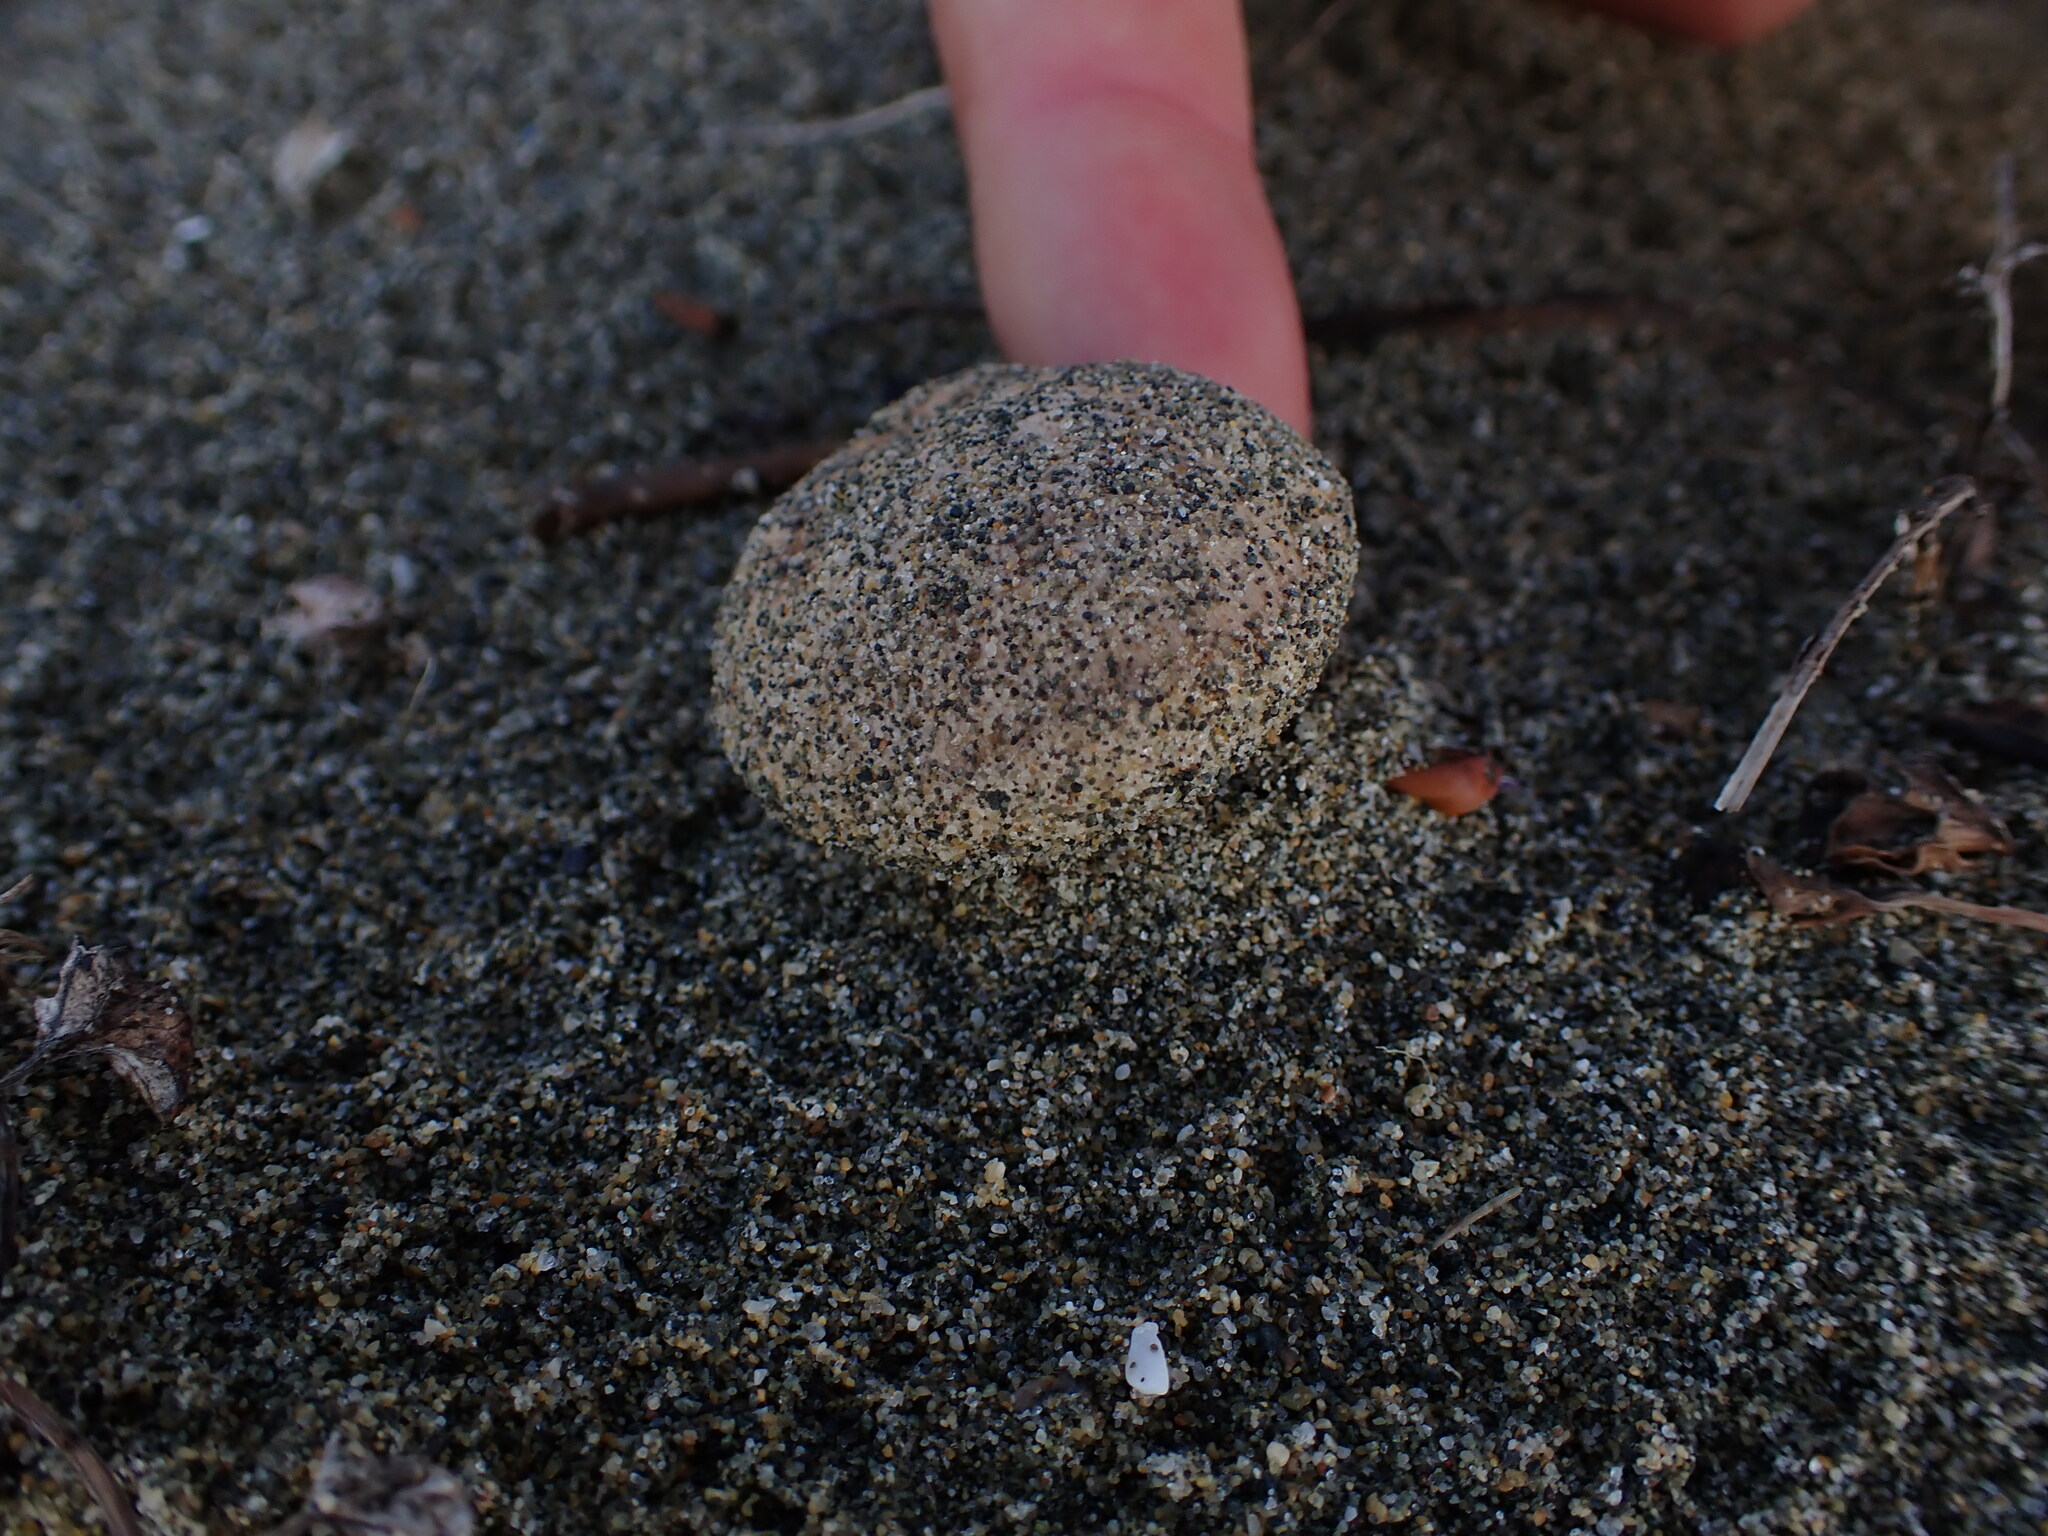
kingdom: Fungi
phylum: Basidiomycota
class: Agaricomycetes
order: Agaricales
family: Psathyrellaceae
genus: Psathyrella
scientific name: Psathyrella ammophila
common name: Dune brittlestem
